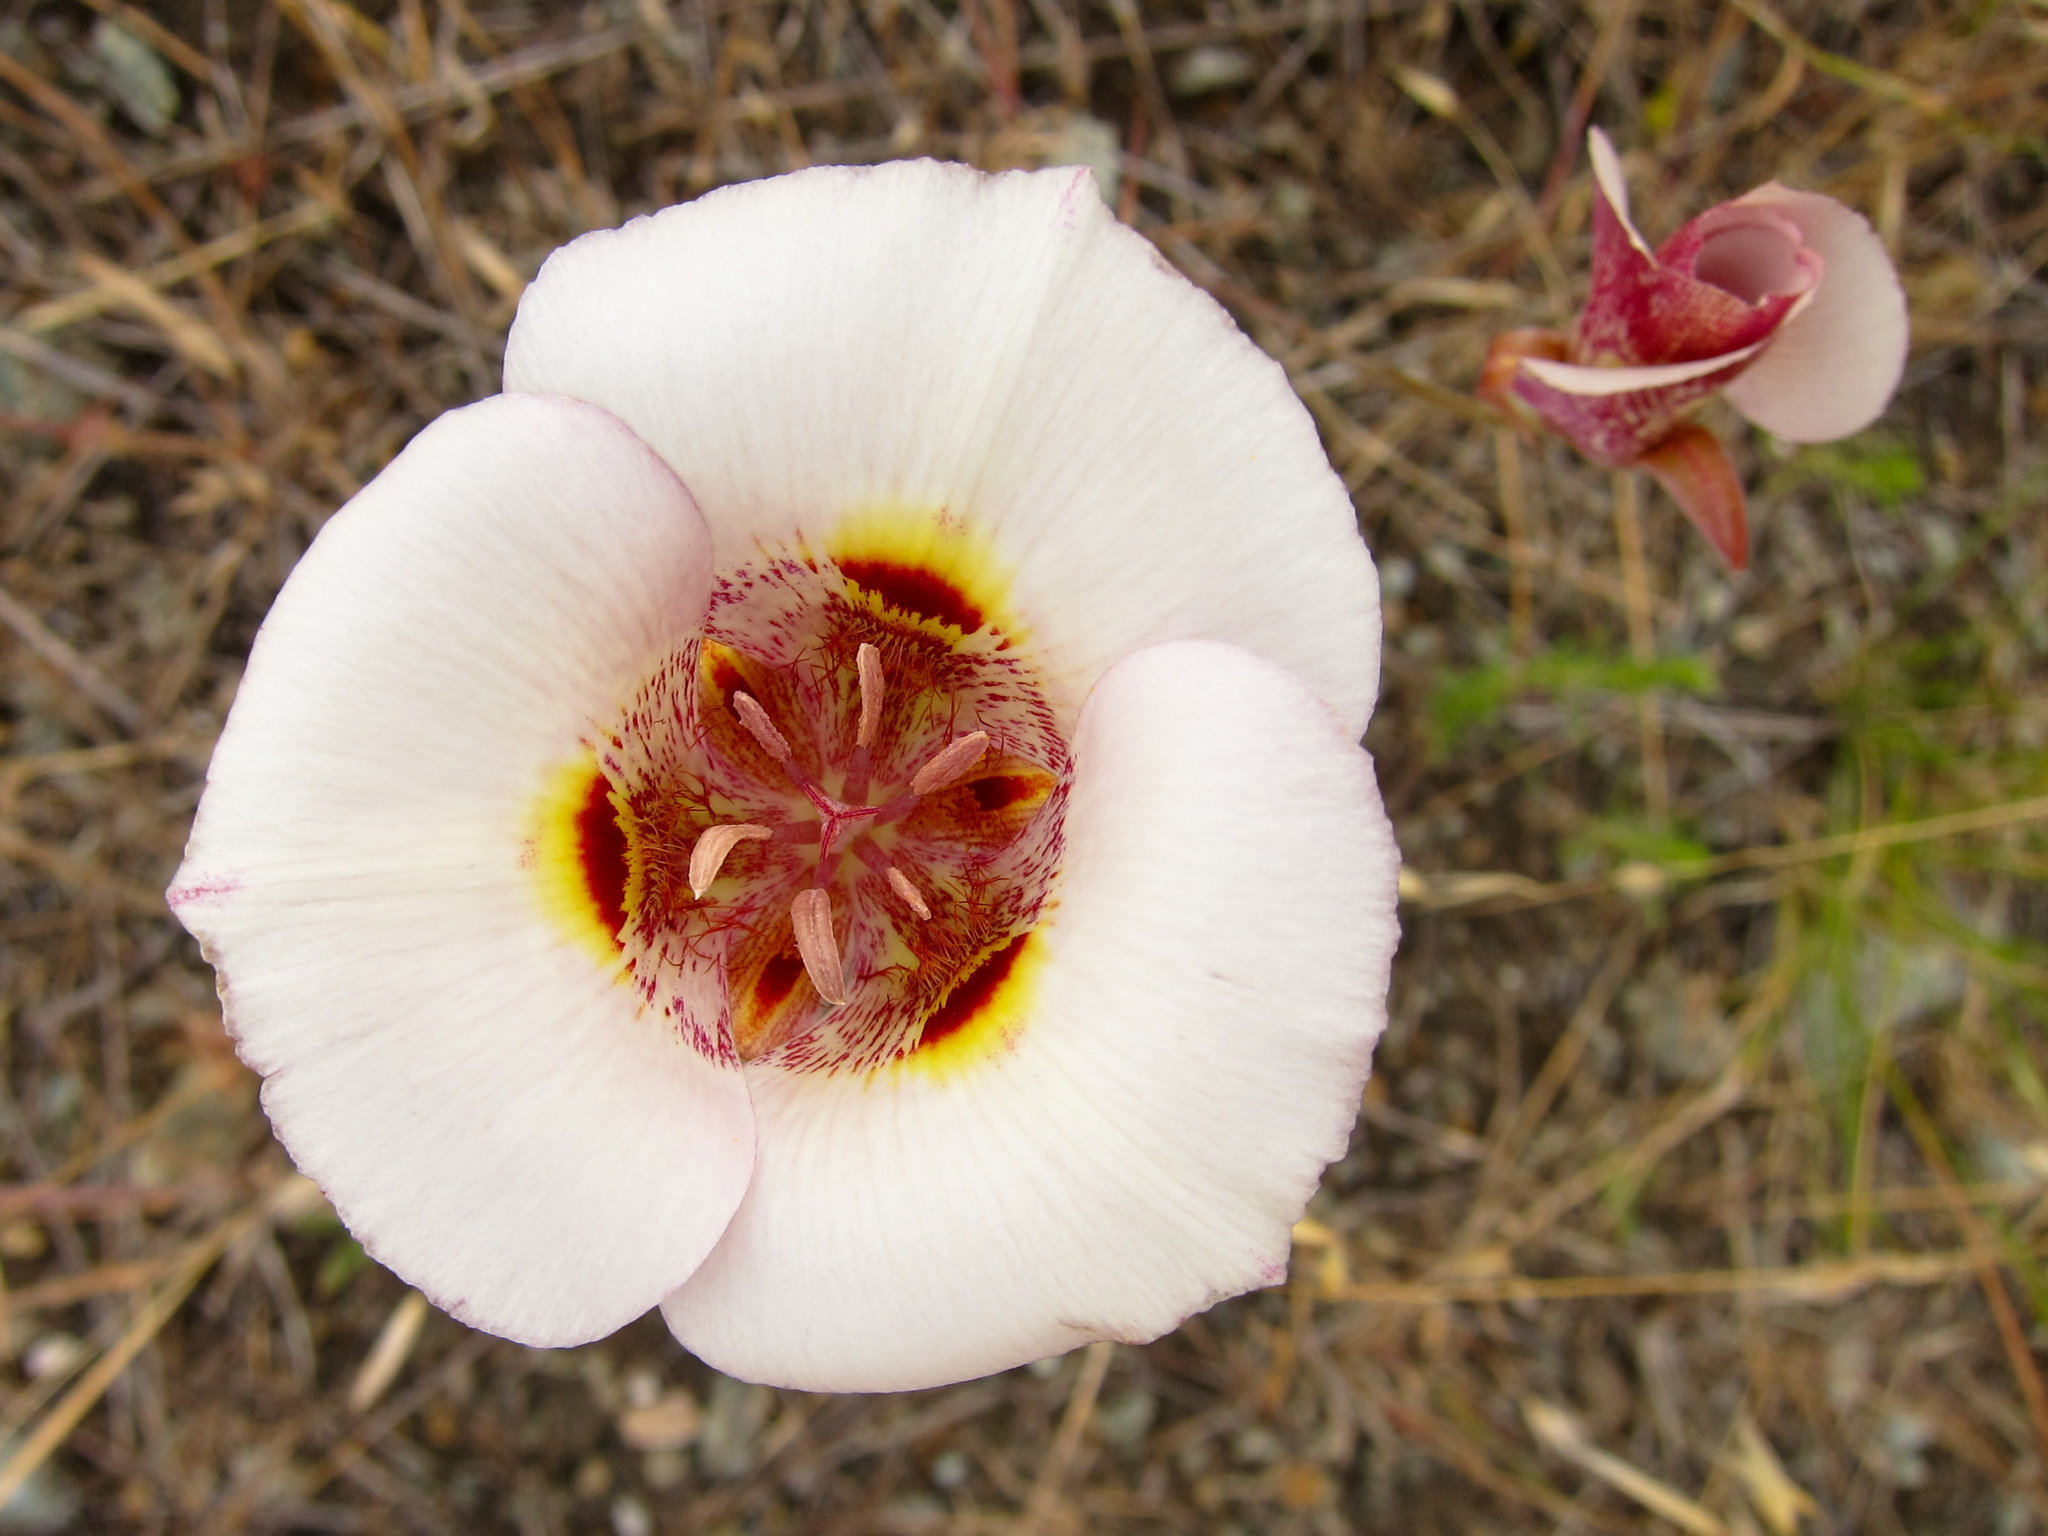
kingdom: Plantae
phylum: Tracheophyta
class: Liliopsida
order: Liliales
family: Liliaceae
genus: Calochortus
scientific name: Calochortus venustus
